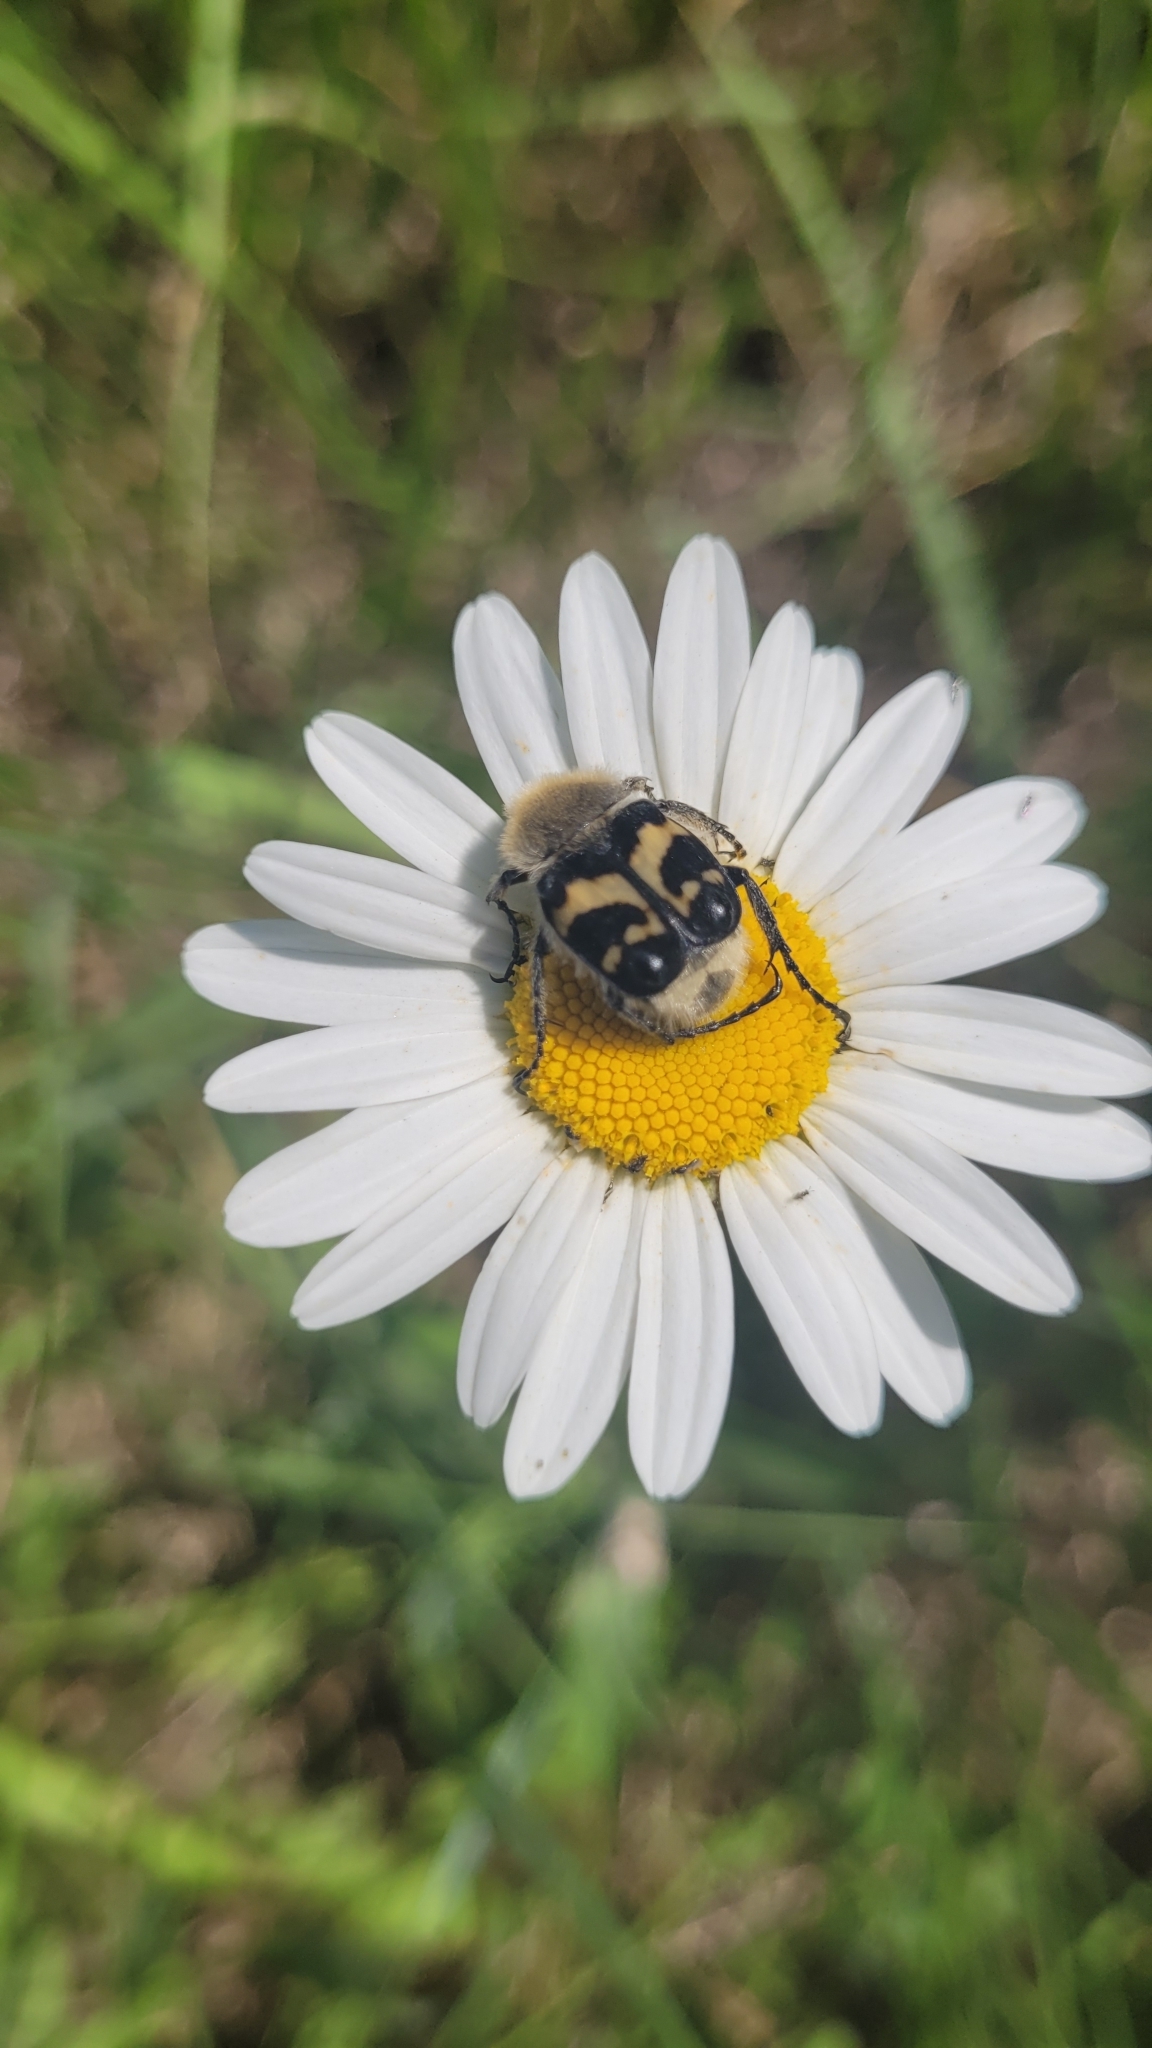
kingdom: Animalia
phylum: Arthropoda
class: Insecta
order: Coleoptera
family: Scarabaeidae
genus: Trichius
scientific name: Trichius fasciatus
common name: Bee beetle
